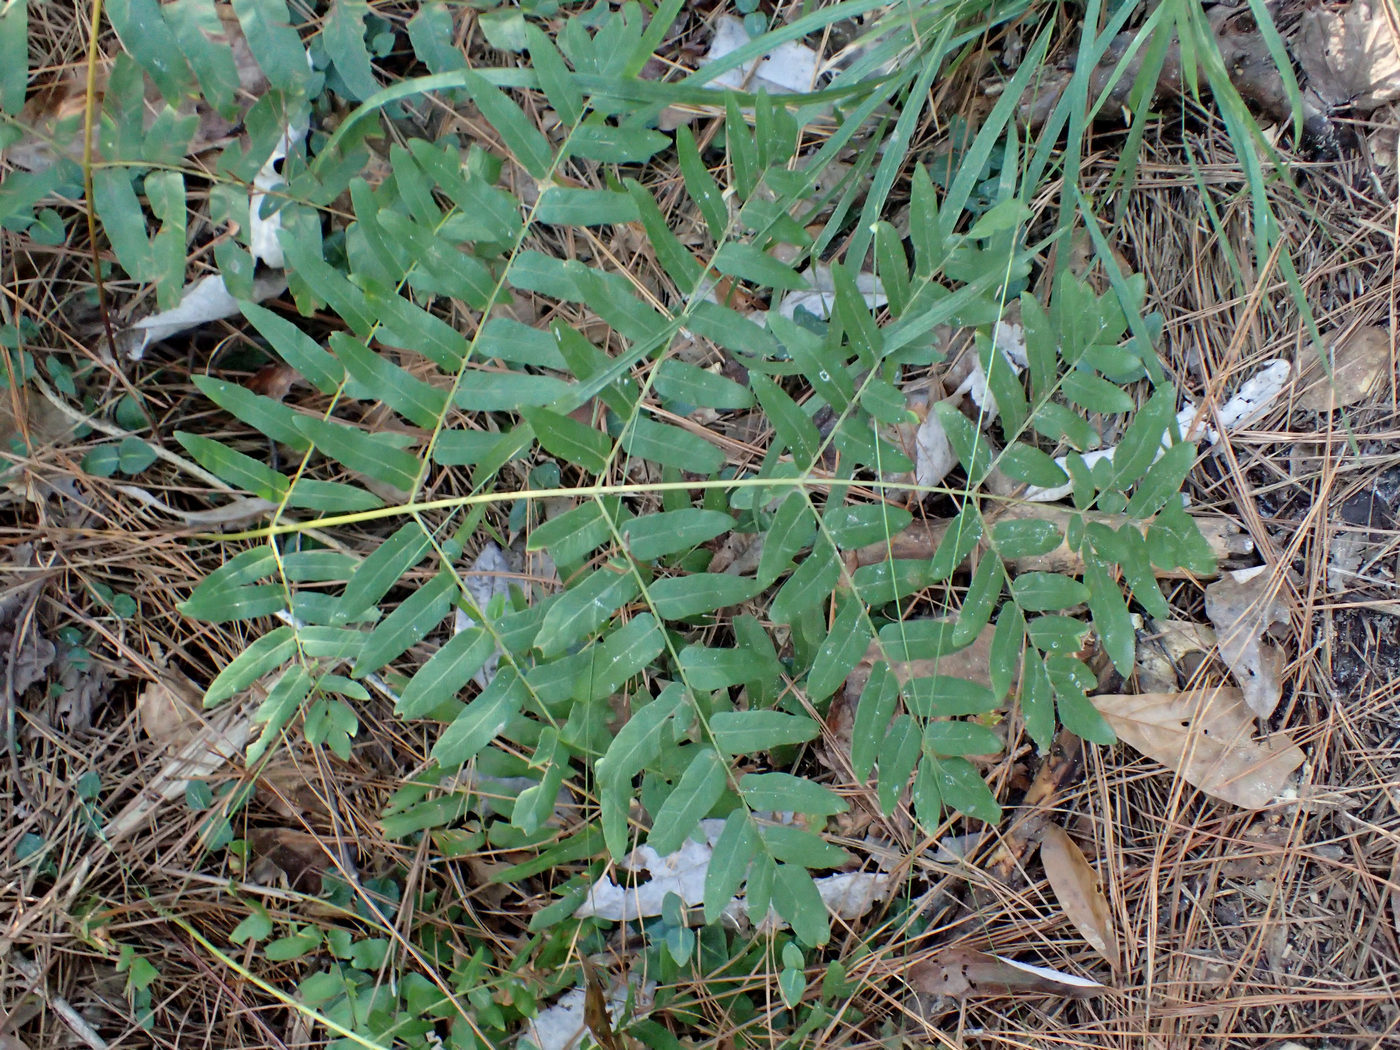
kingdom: Plantae
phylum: Tracheophyta
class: Polypodiopsida
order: Osmundales
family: Osmundaceae
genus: Osmunda
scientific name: Osmunda spectabilis
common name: American royal fern
